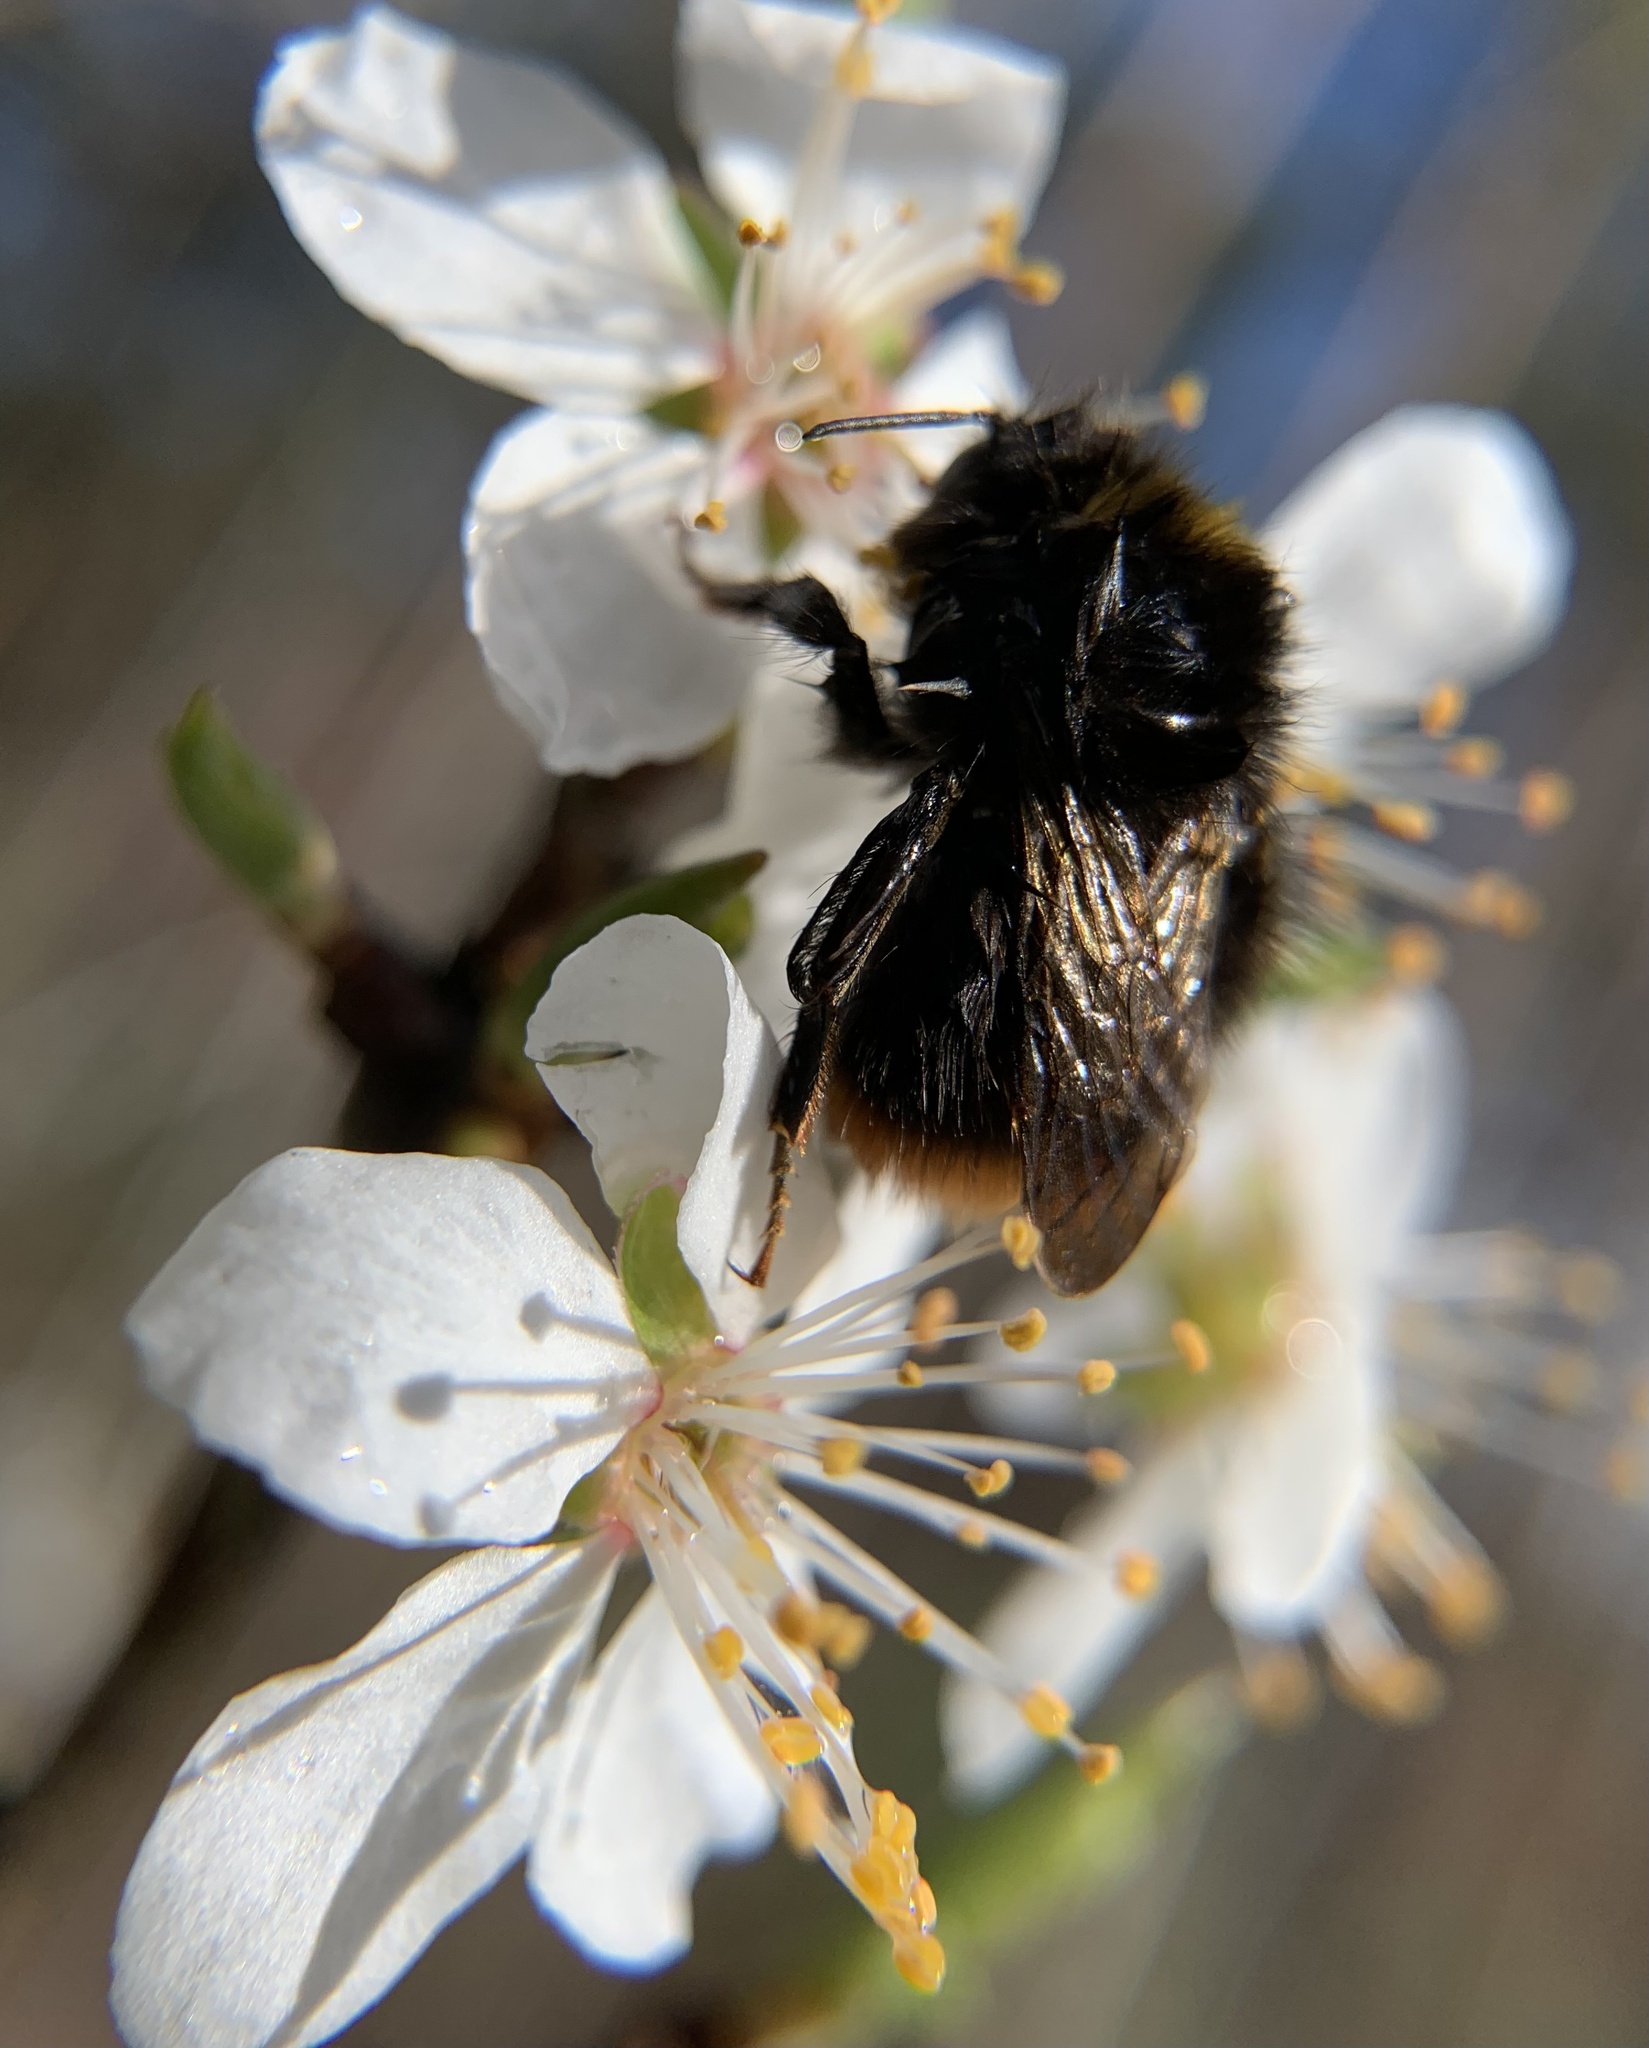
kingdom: Animalia
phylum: Arthropoda
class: Insecta
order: Hymenoptera
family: Apidae
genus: Bombus
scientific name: Bombus pratorum
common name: Early humble-bee
